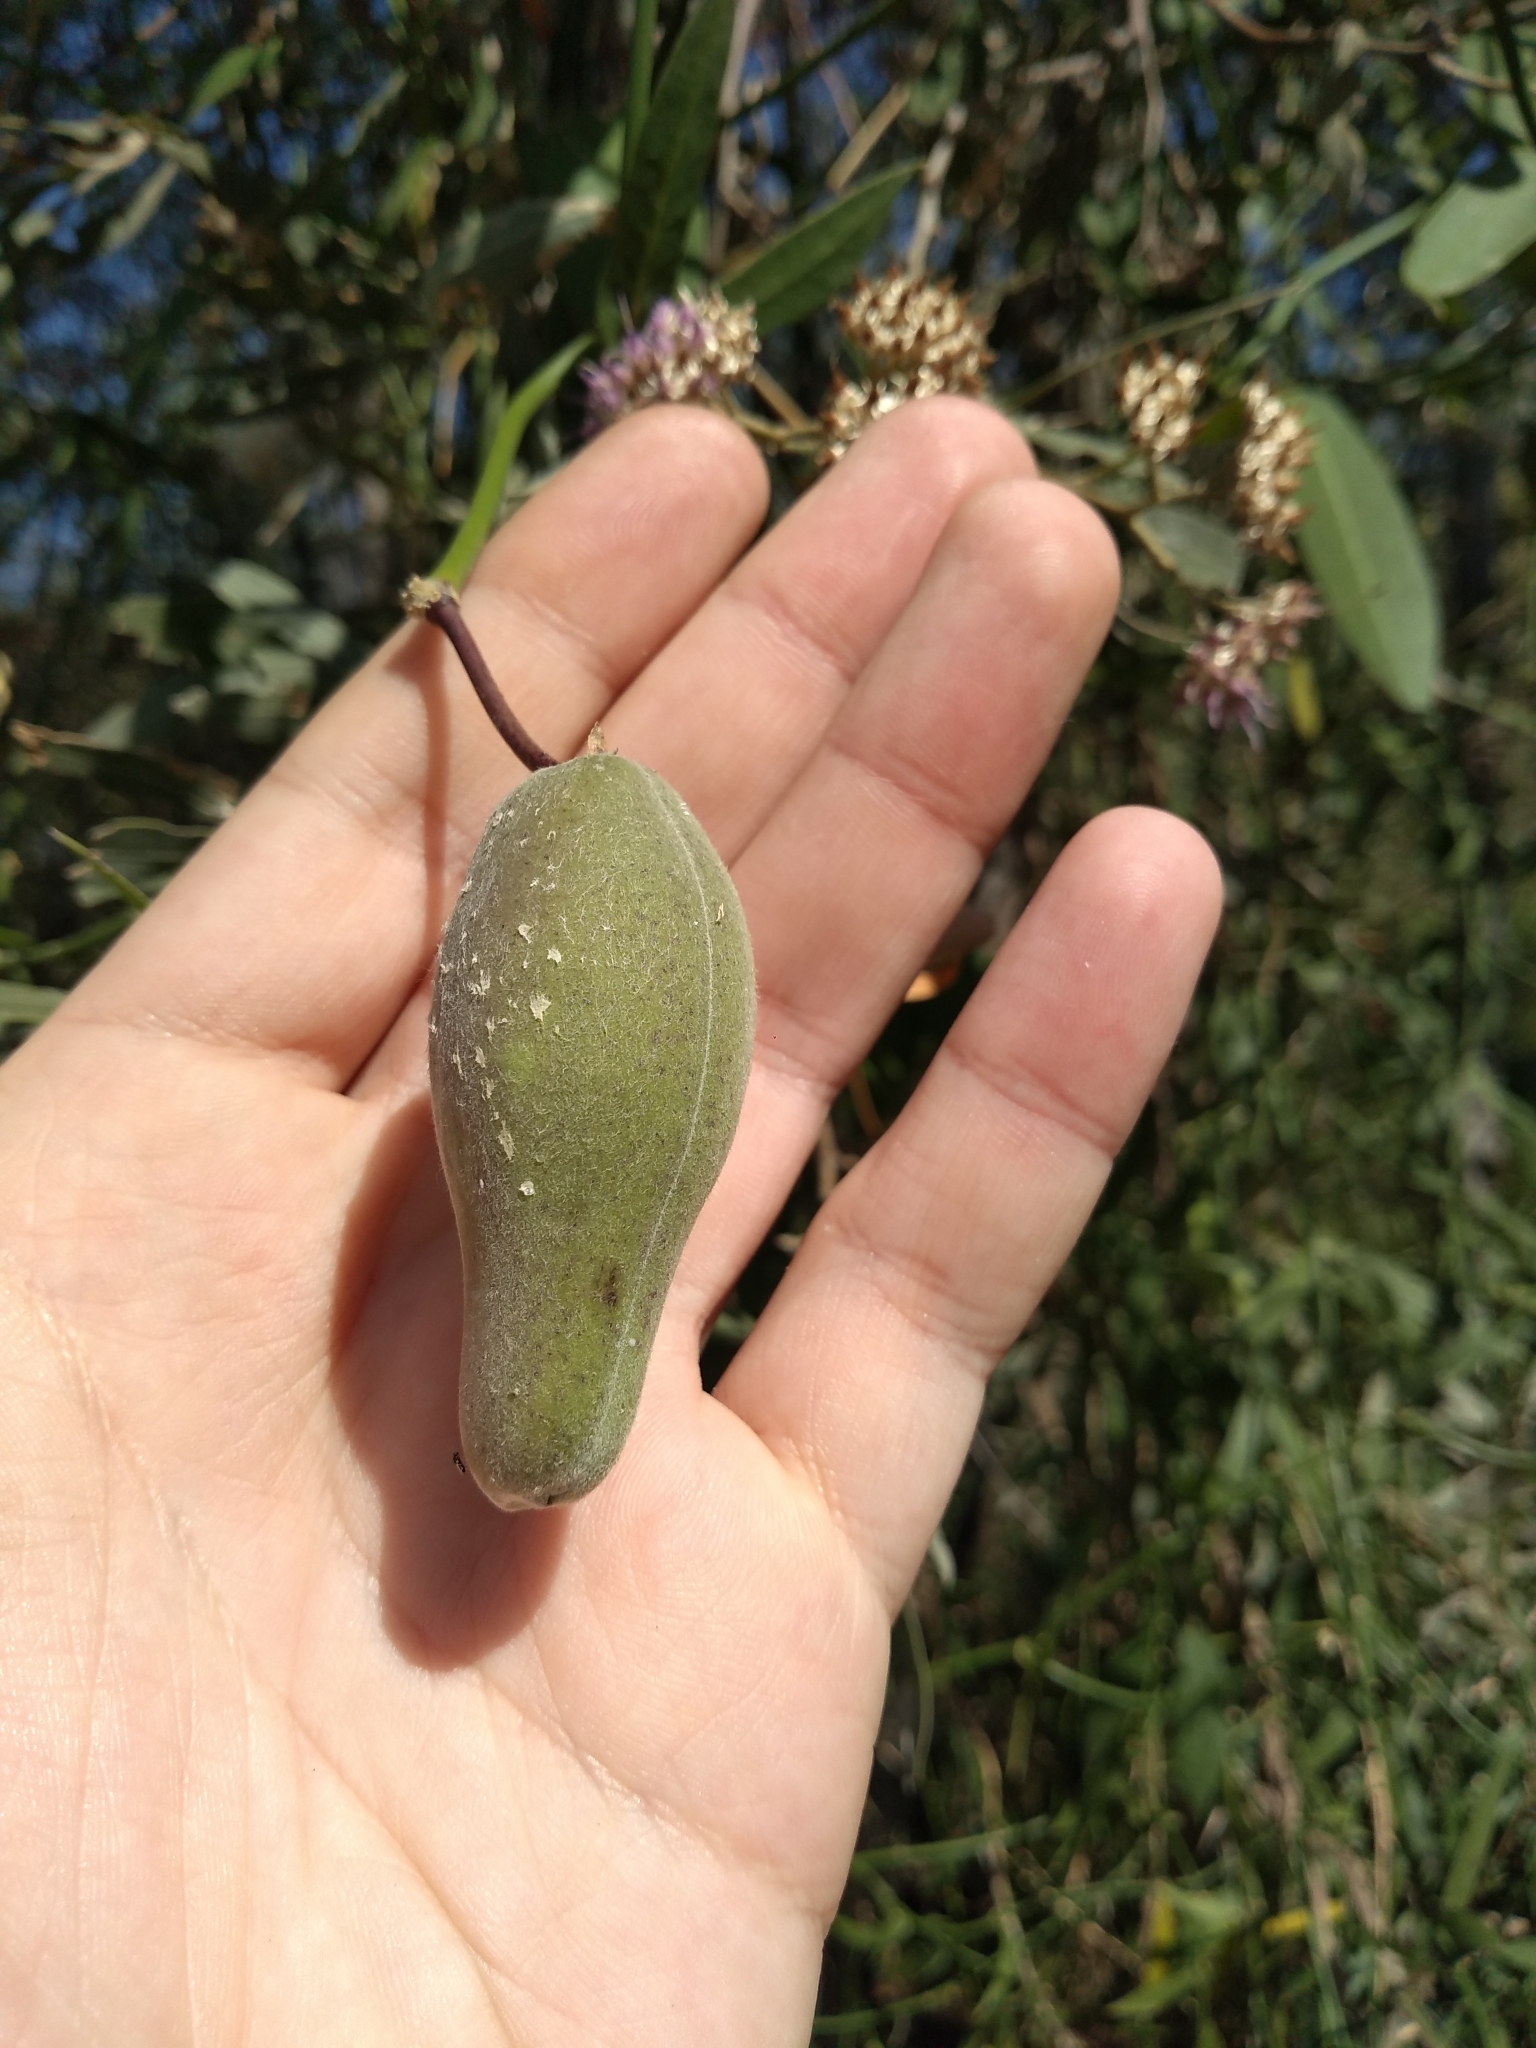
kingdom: Plantae
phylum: Tracheophyta
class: Magnoliopsida
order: Gentianales
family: Apocynaceae
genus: Funastrum
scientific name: Funastrum clausum
